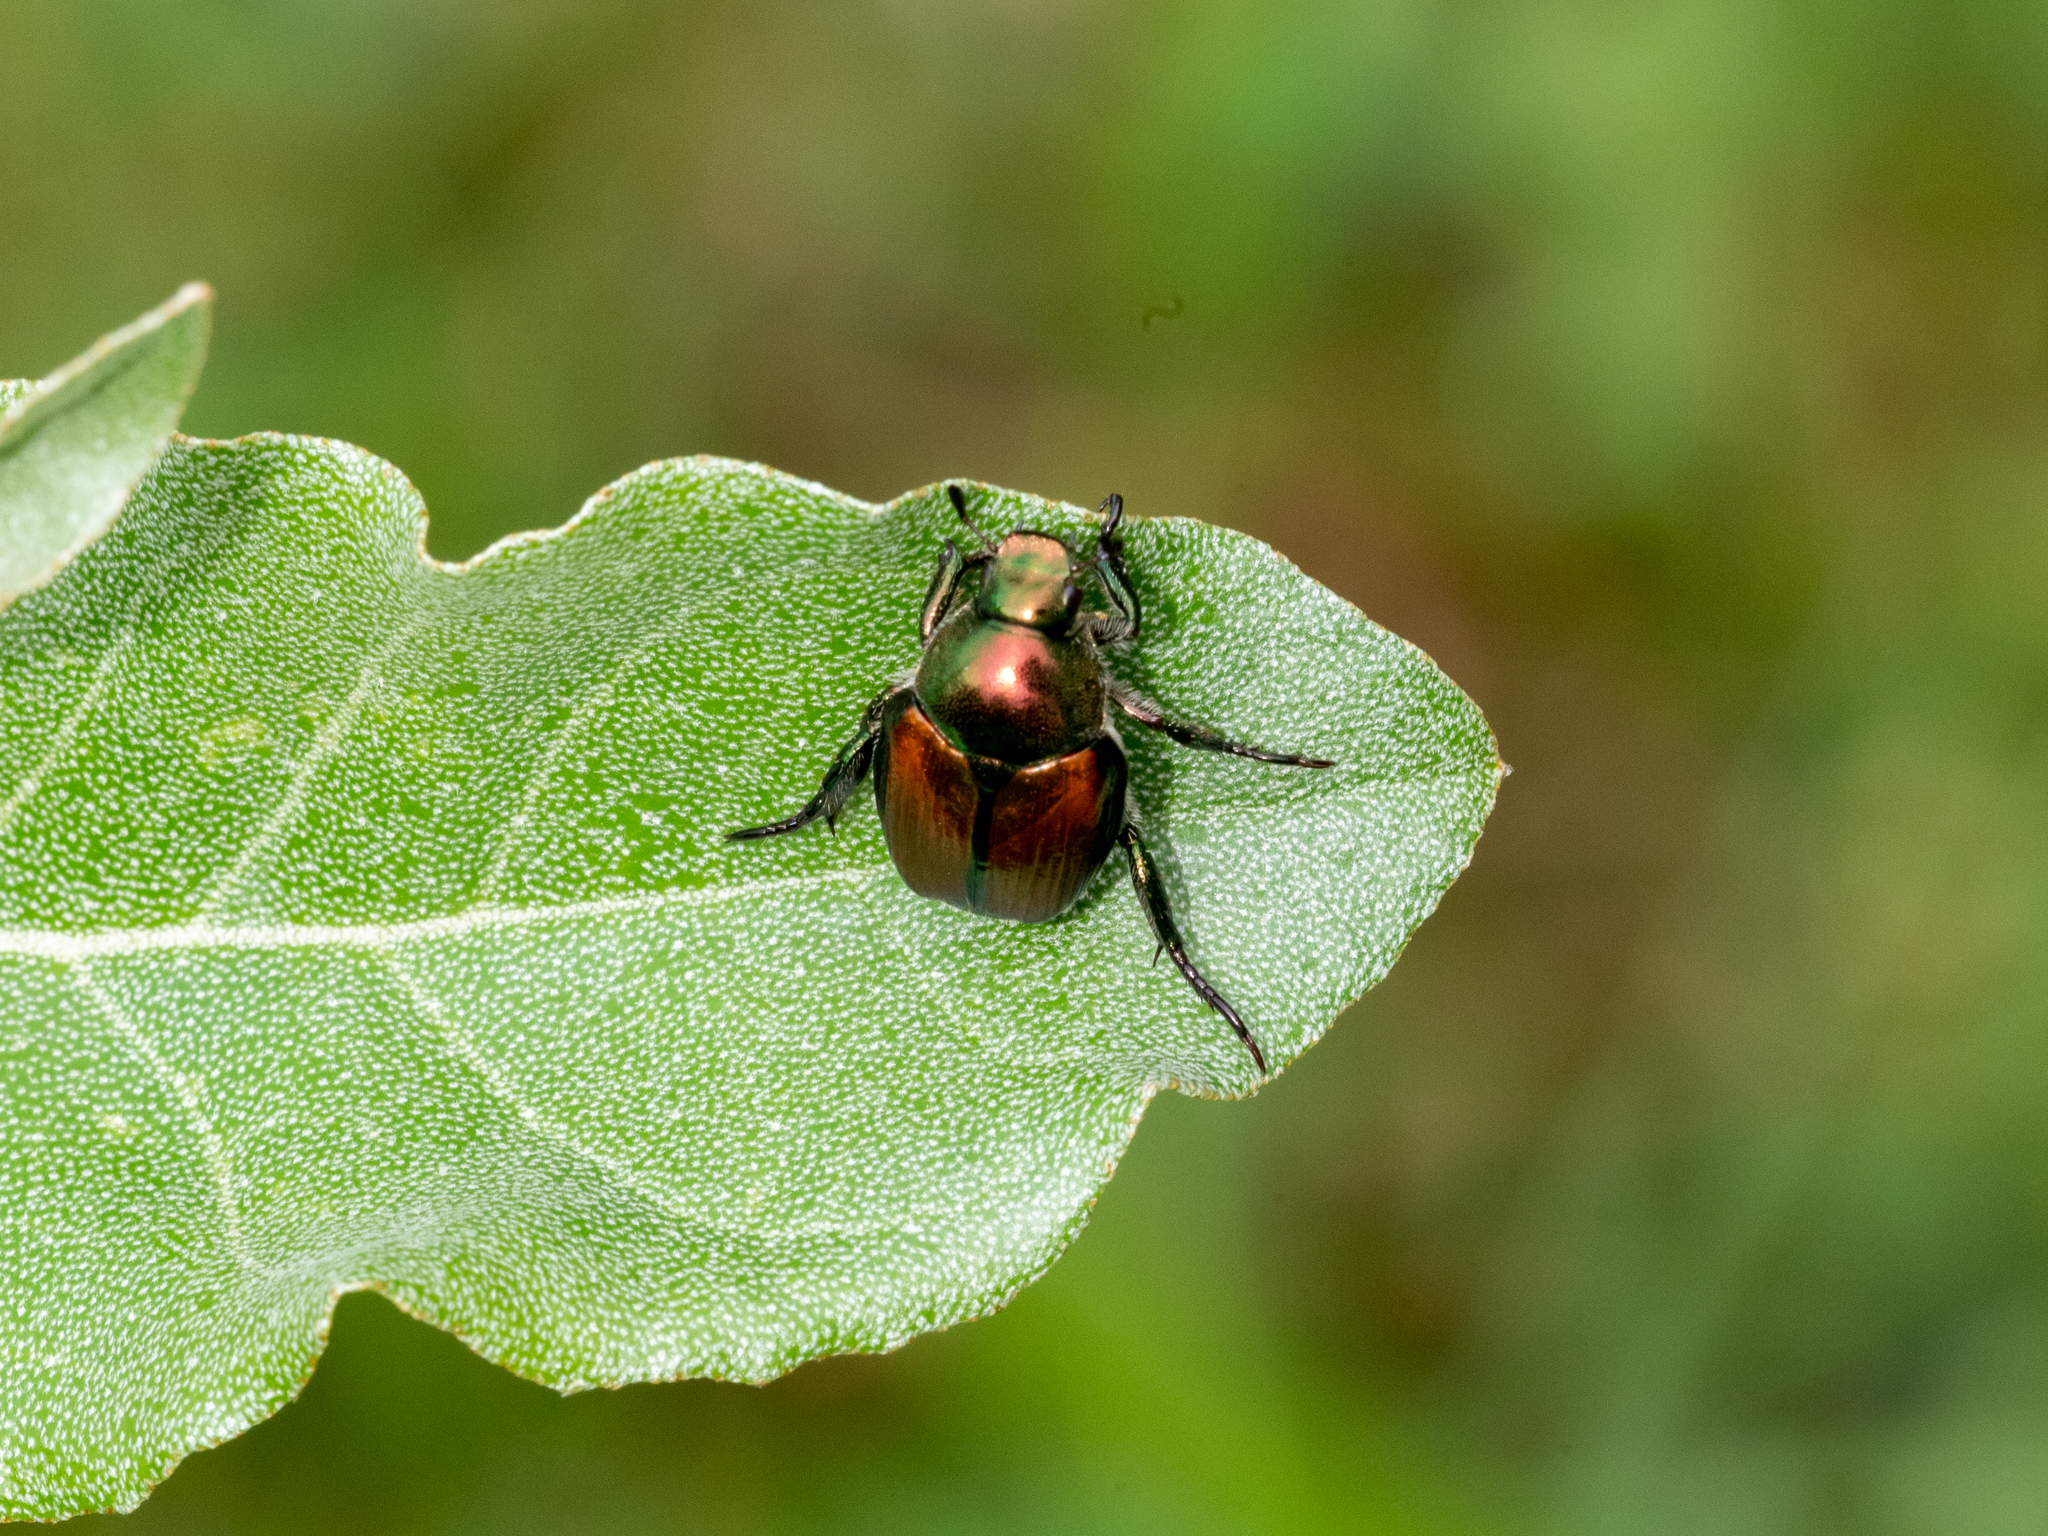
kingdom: Animalia
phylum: Arthropoda
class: Insecta
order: Coleoptera
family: Scarabaeidae
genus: Popillia
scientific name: Popillia japonica
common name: Japanese beetle
